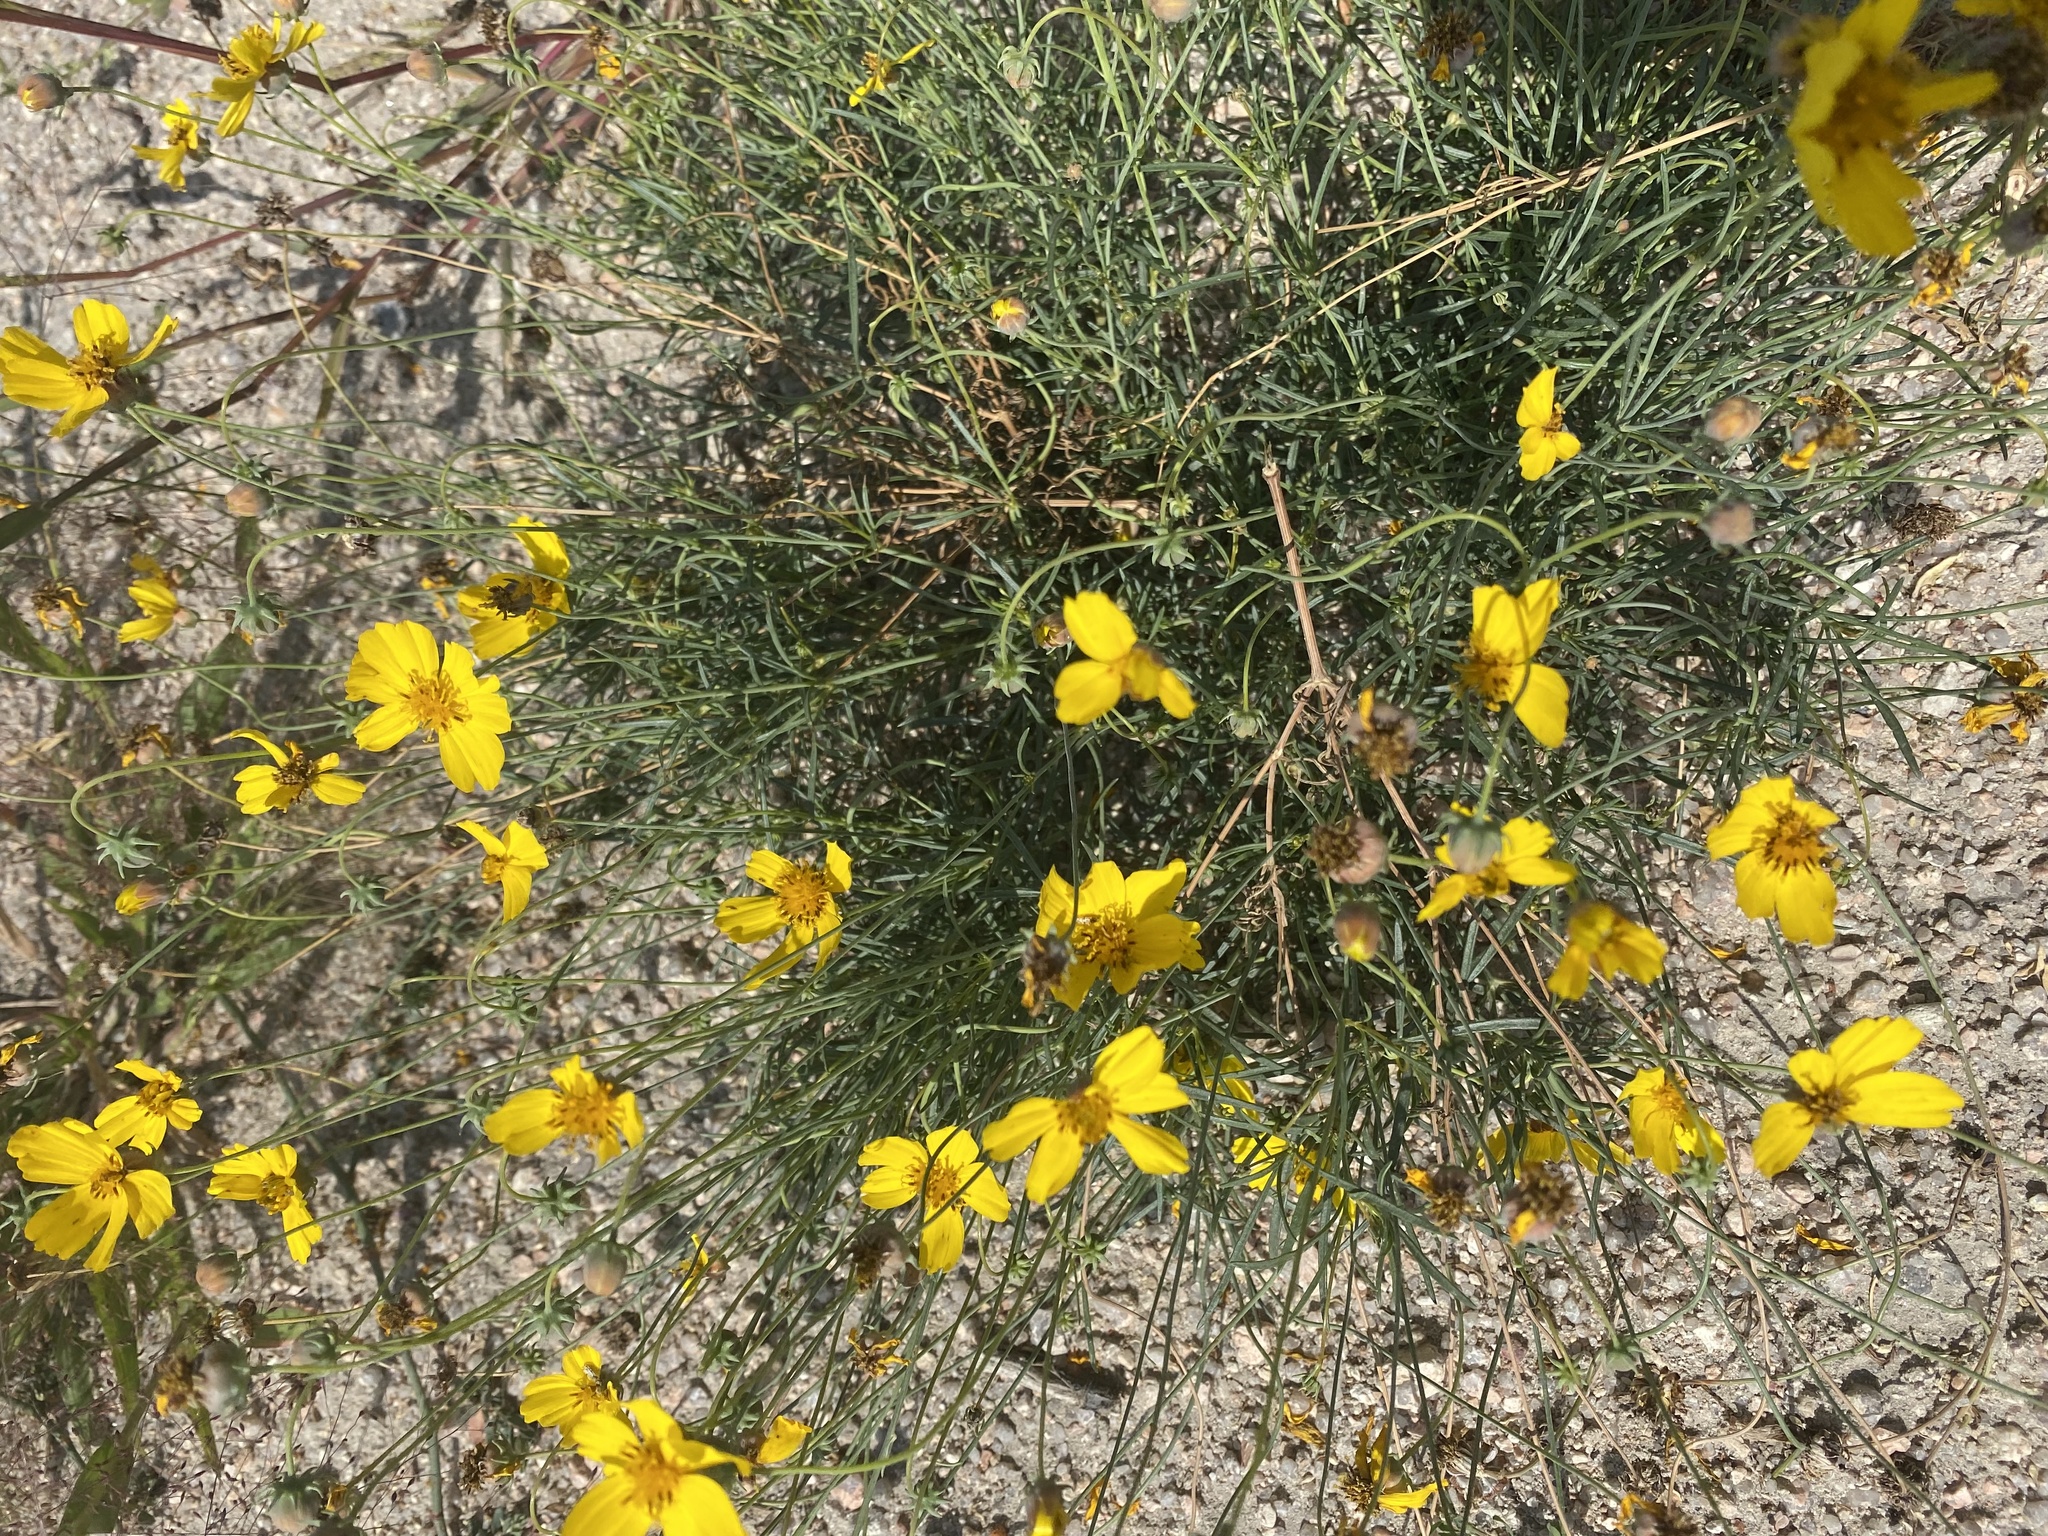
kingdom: Plantae
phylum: Tracheophyta
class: Magnoliopsida
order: Asterales
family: Asteraceae
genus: Zinnia
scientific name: Zinnia grandiflora
